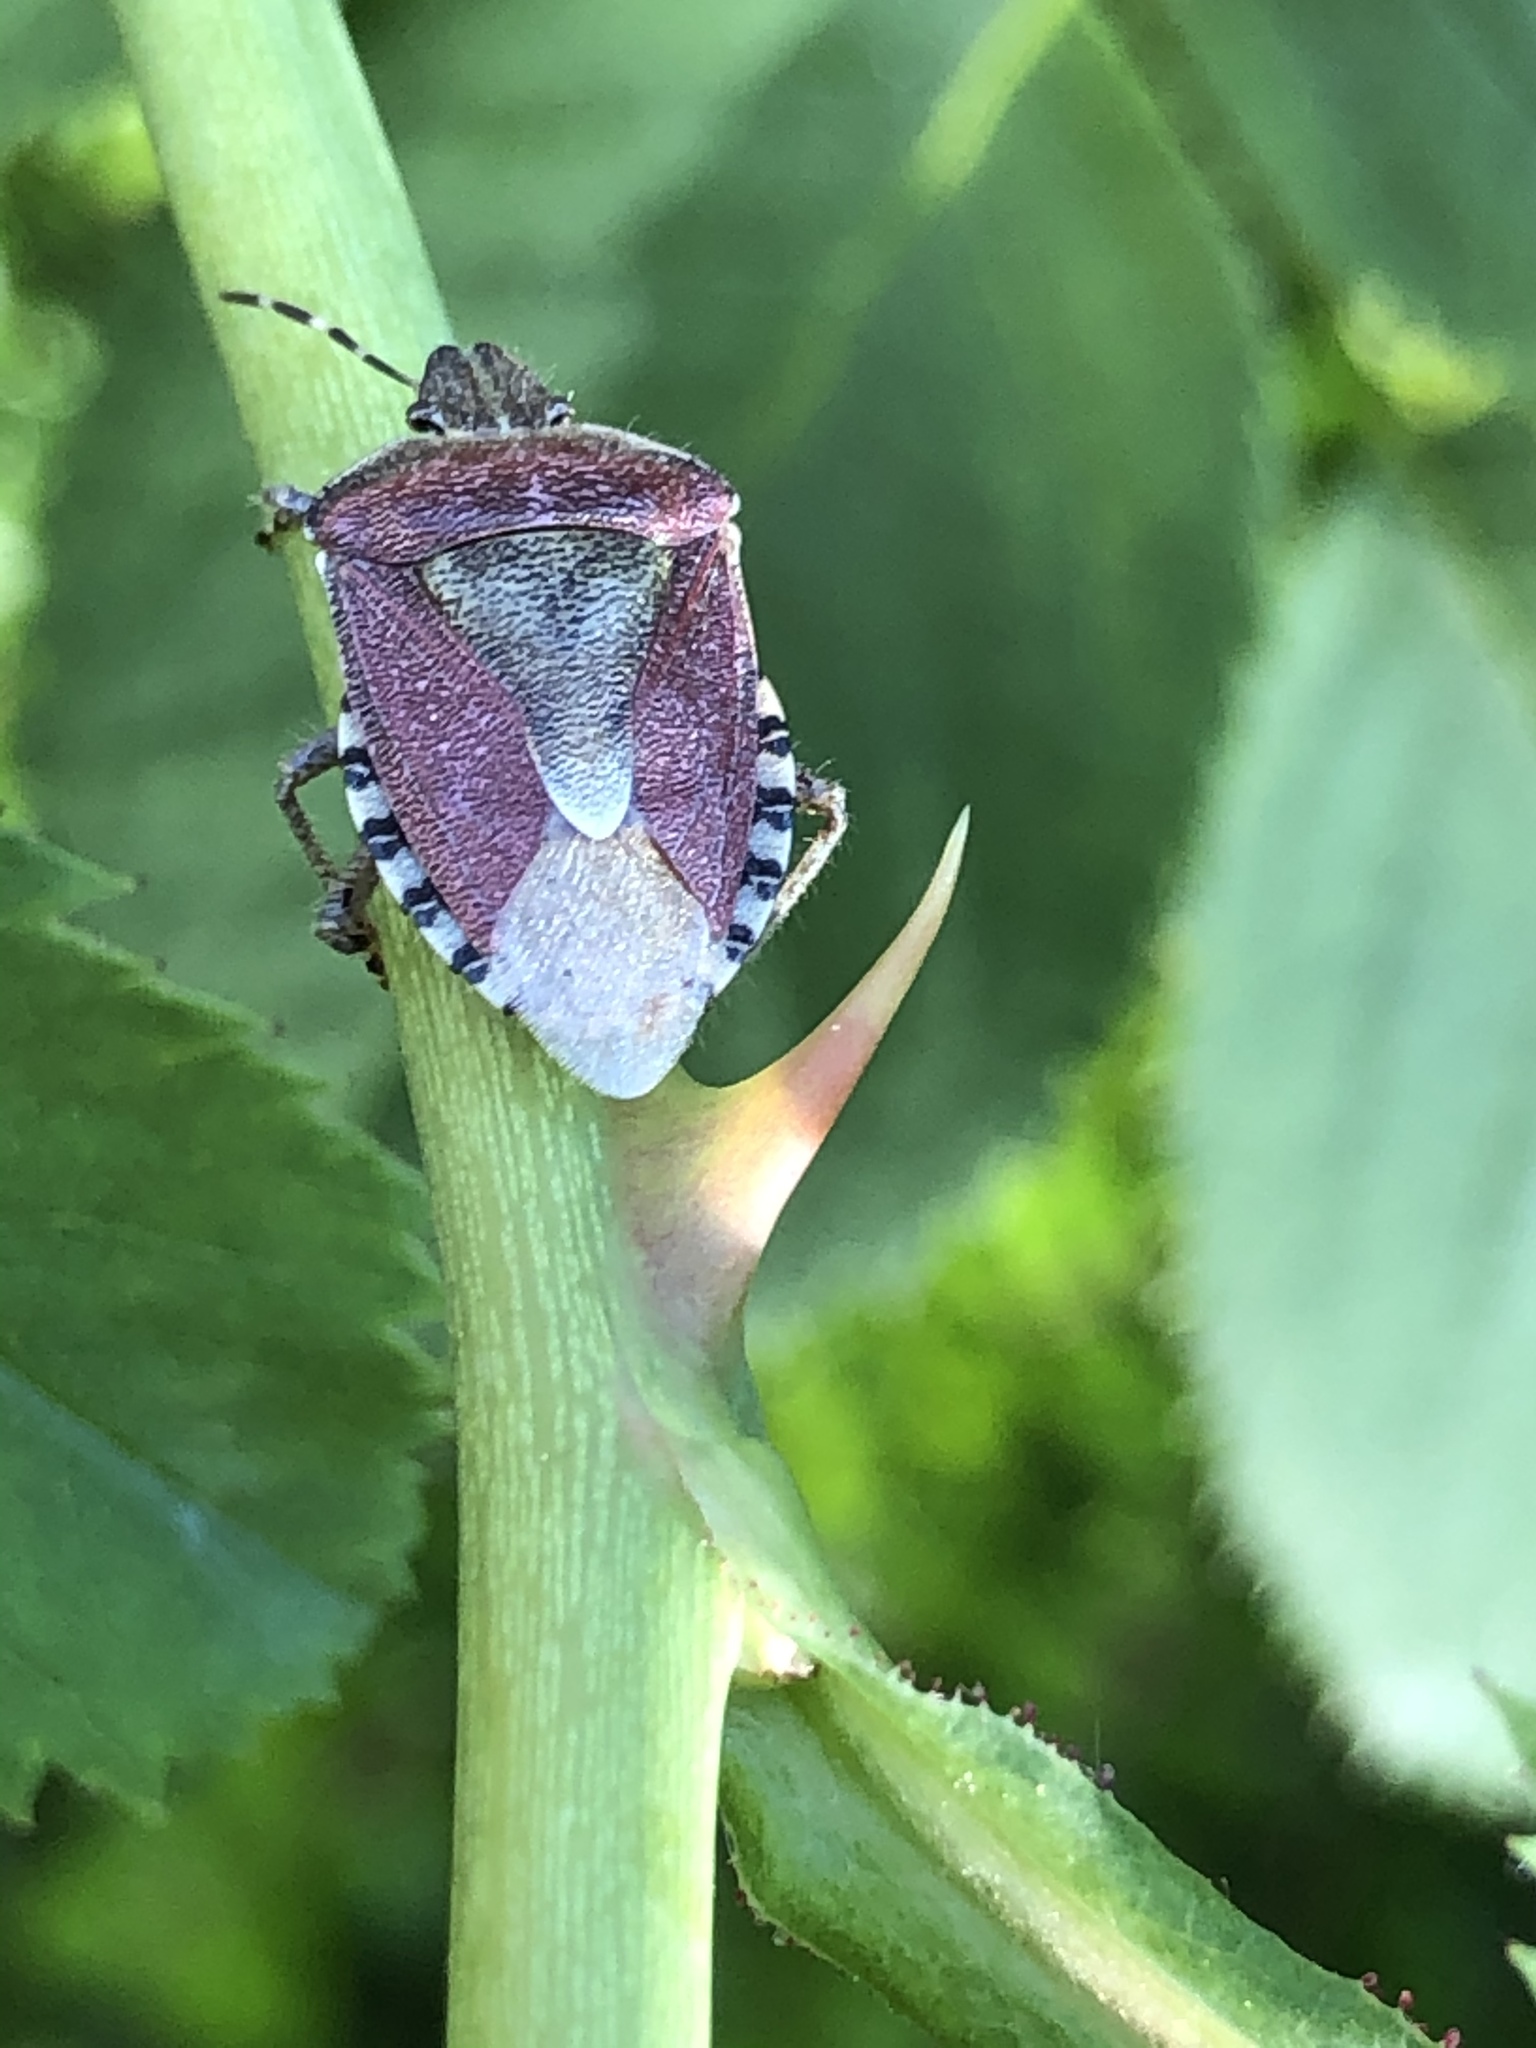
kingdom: Animalia
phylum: Arthropoda
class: Insecta
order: Hemiptera
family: Pentatomidae
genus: Dolycoris
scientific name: Dolycoris baccarum
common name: Sloe bug
